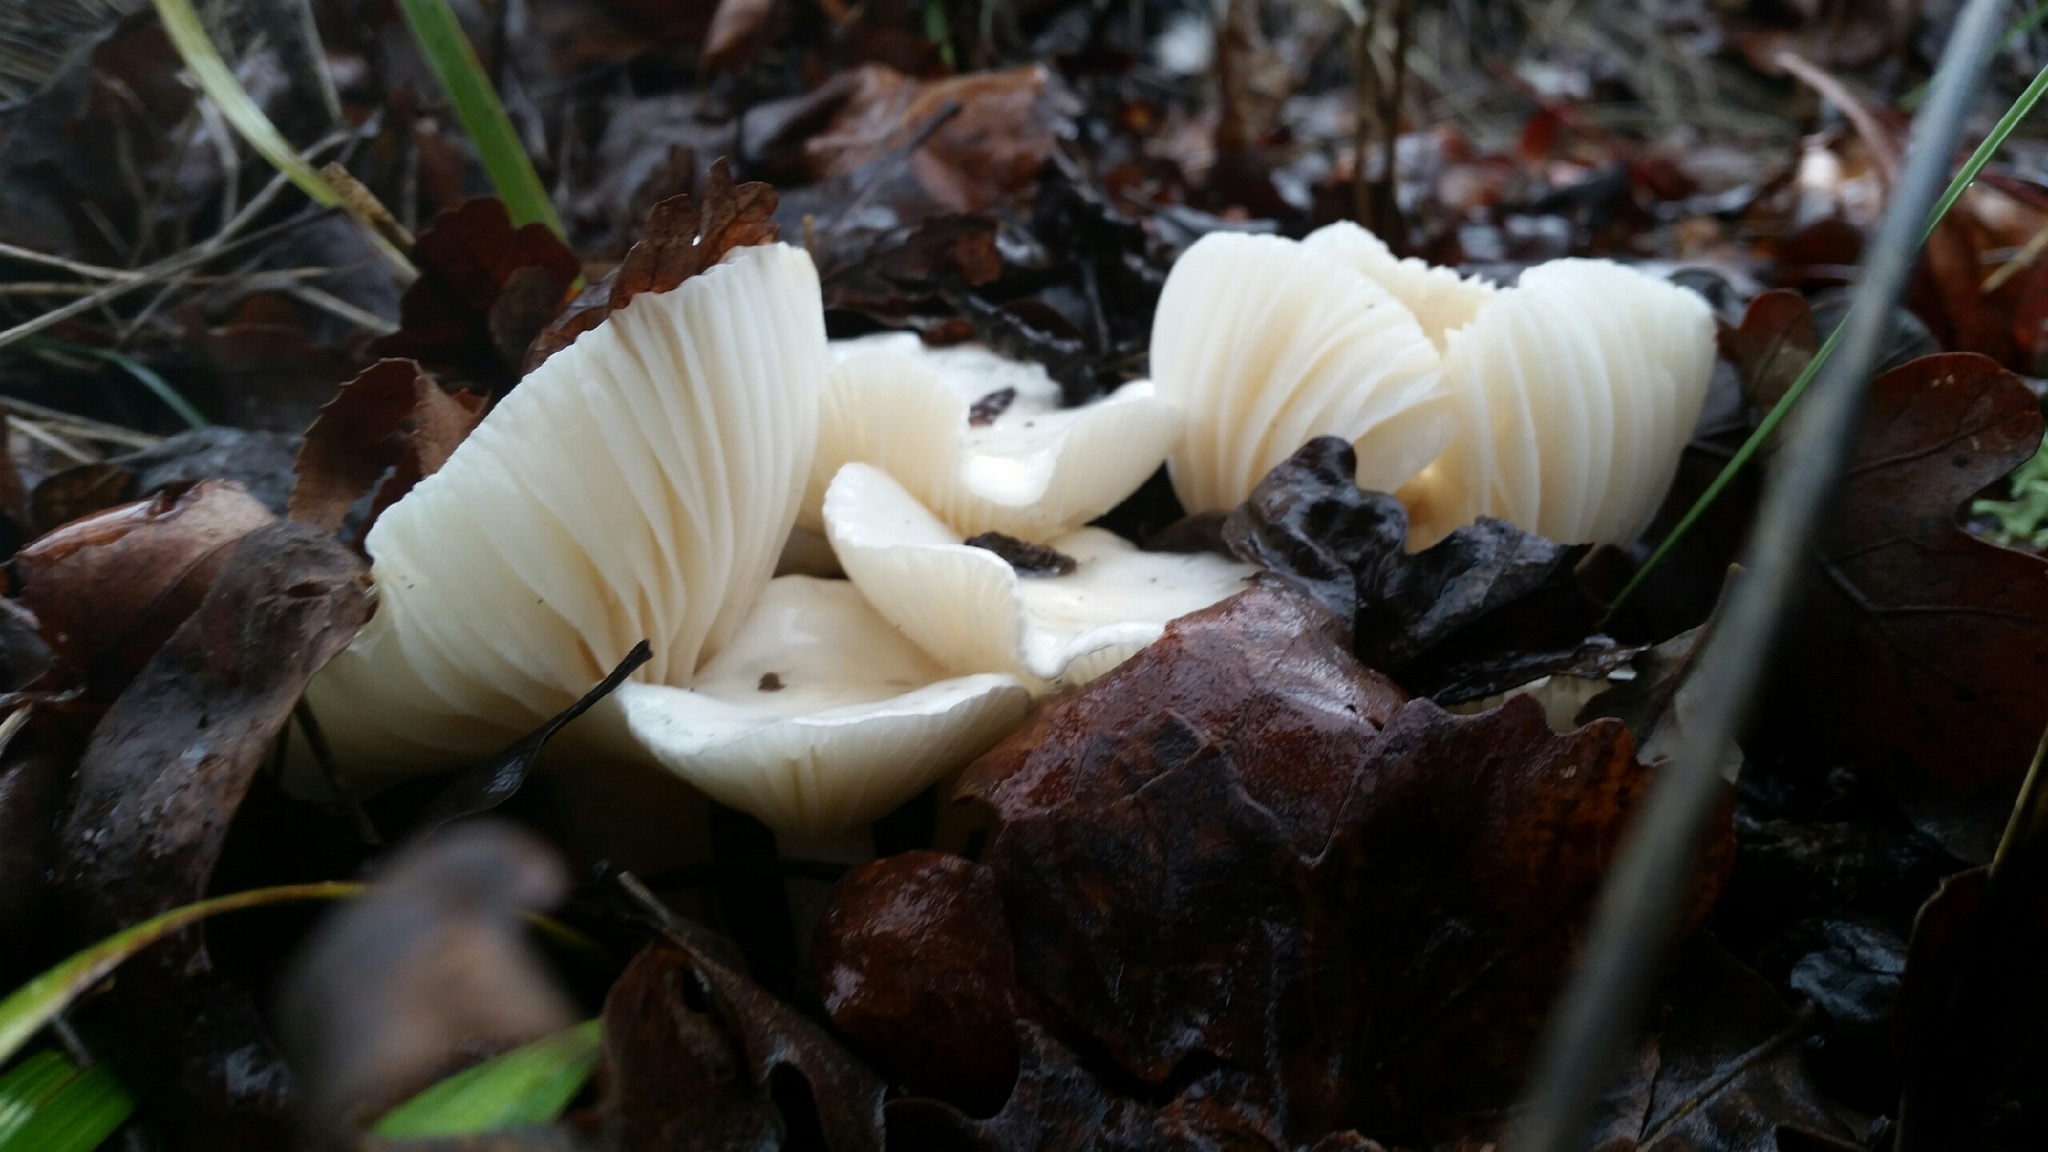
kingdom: Fungi
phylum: Basidiomycota
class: Agaricomycetes
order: Agaricales
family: Hygrophoraceae
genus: Hygrophorus
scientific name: Hygrophorus eburneus
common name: Ivory wax-cap
